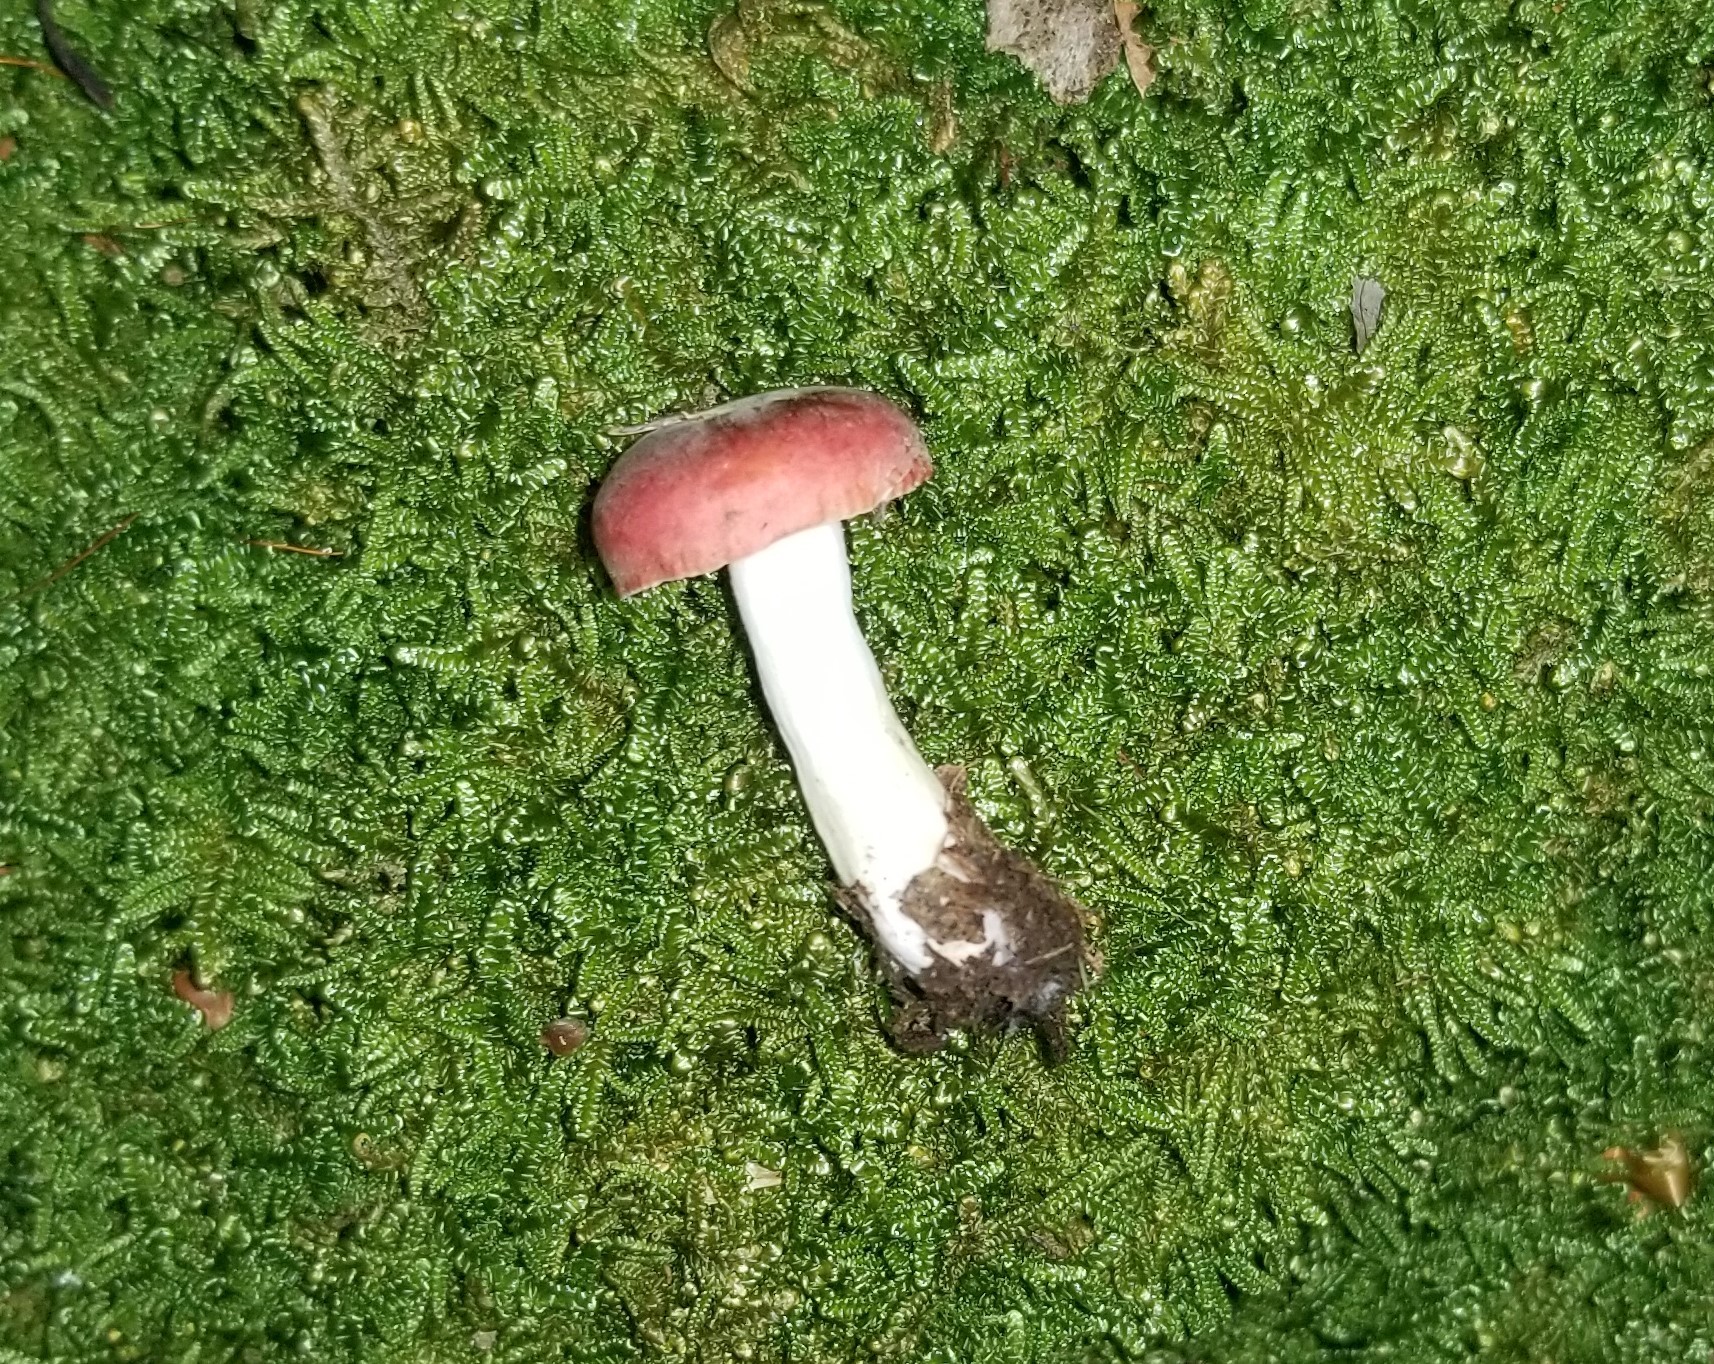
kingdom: Fungi
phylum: Ascomycota
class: Sordariomycetes
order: Hypocreales
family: Hypocreaceae
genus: Hypomyces
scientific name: Hypomyces luteovirens
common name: Yellow-green russula mold
